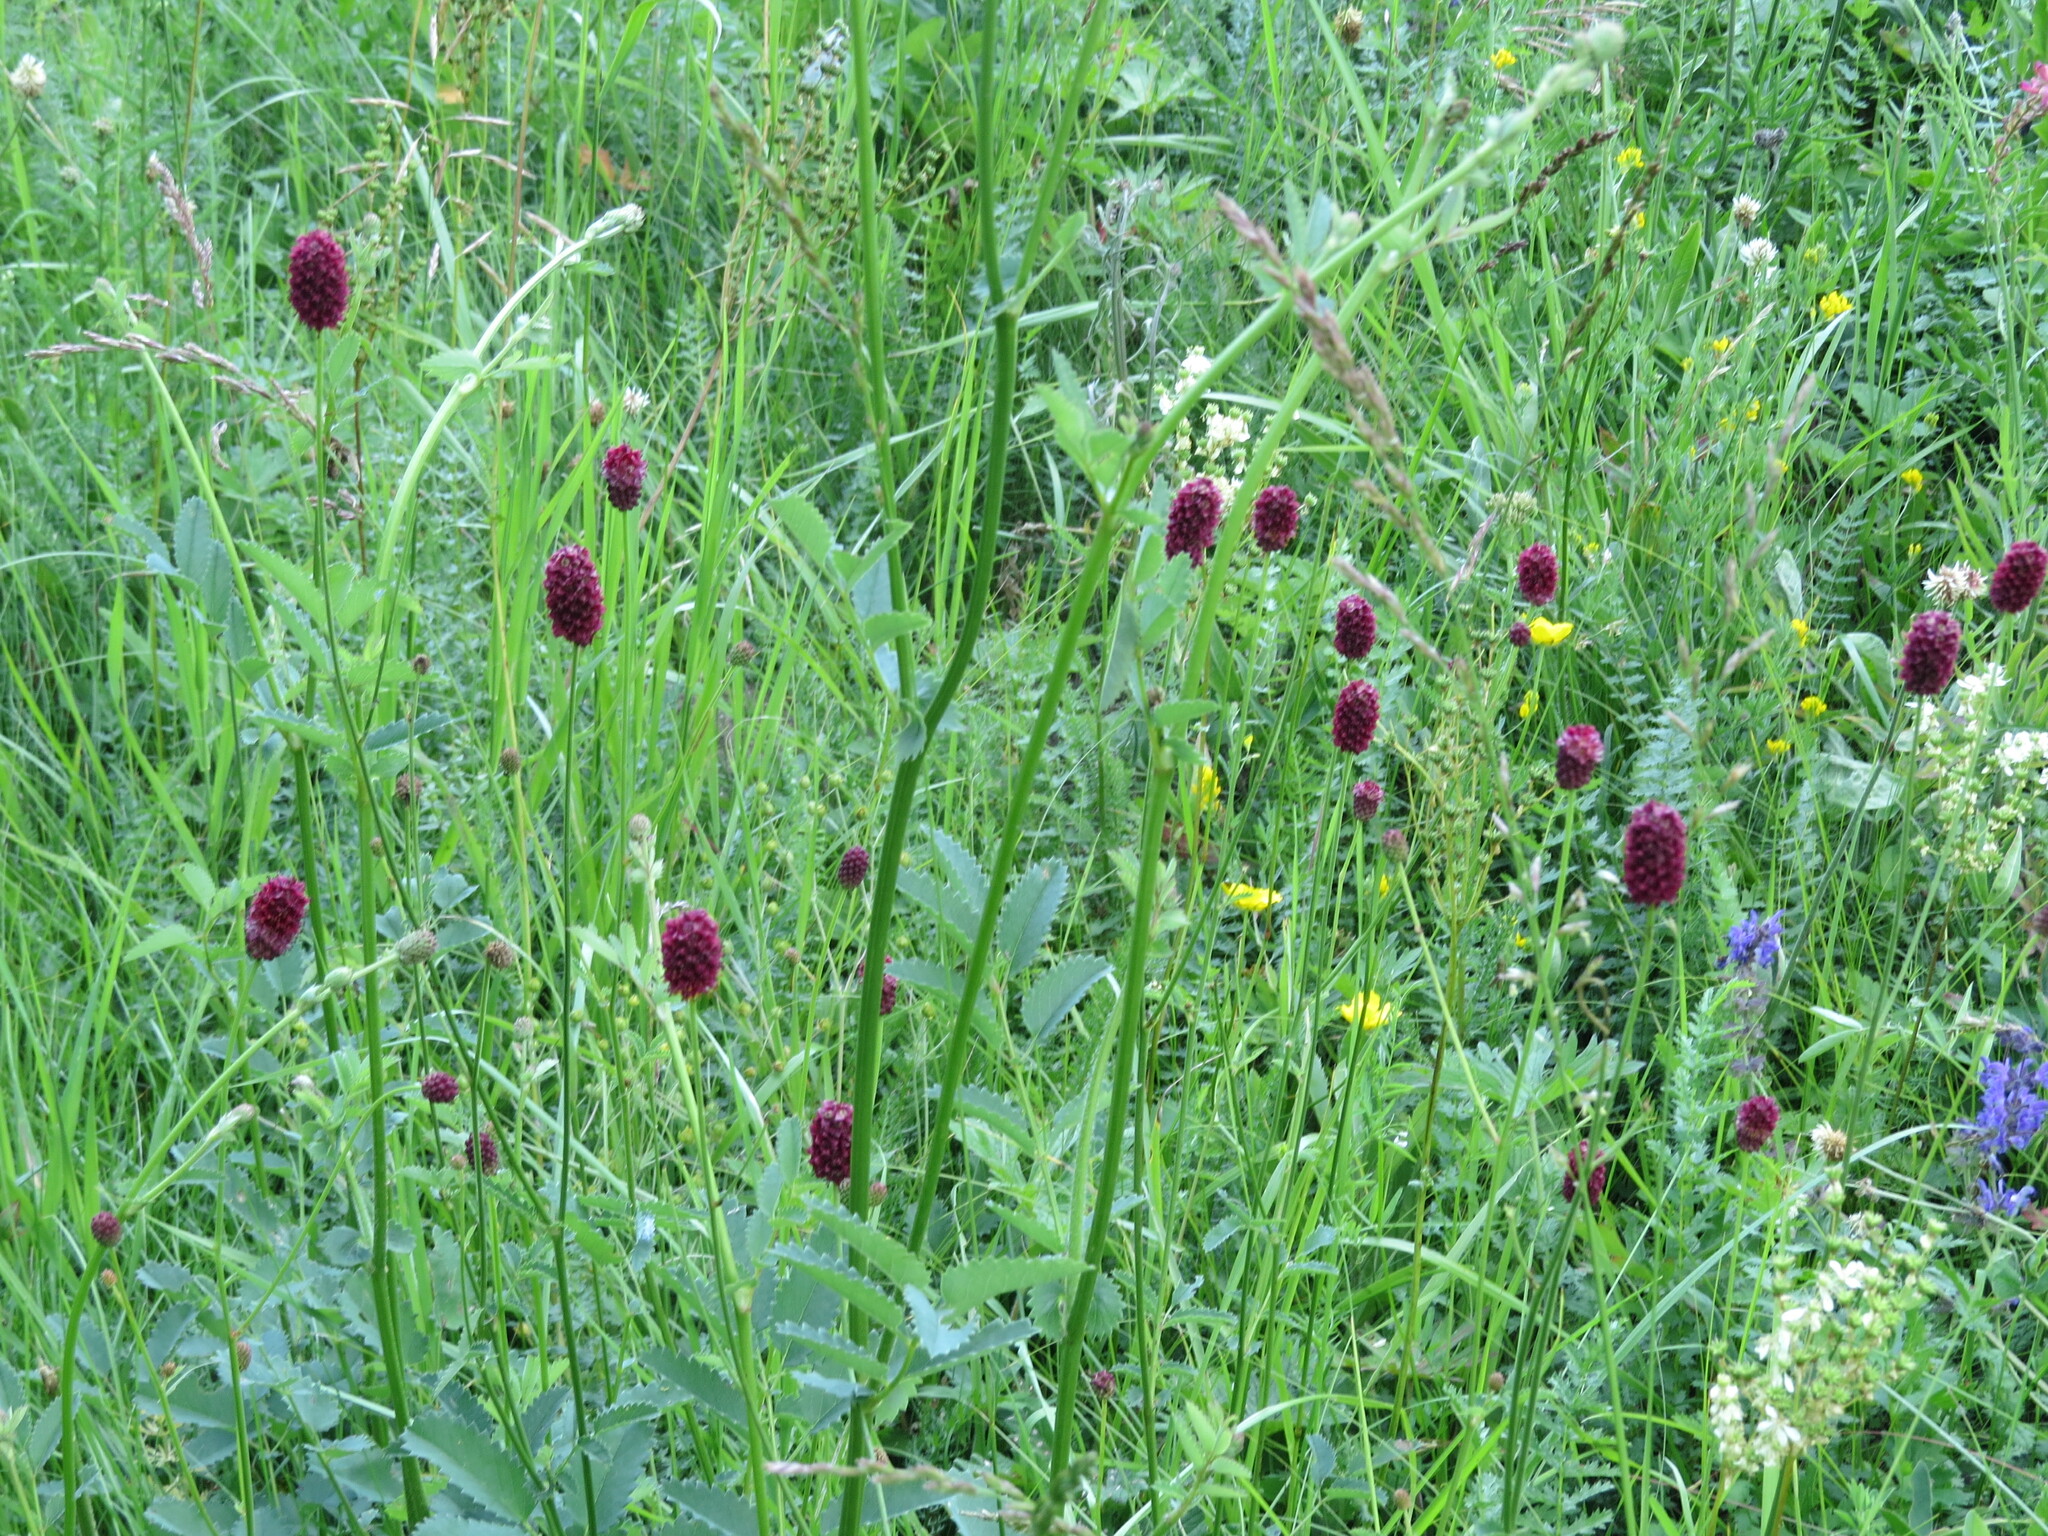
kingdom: Plantae
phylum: Tracheophyta
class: Magnoliopsida
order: Rosales
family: Rosaceae
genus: Sanguisorba
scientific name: Sanguisorba officinalis
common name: Great burnet
